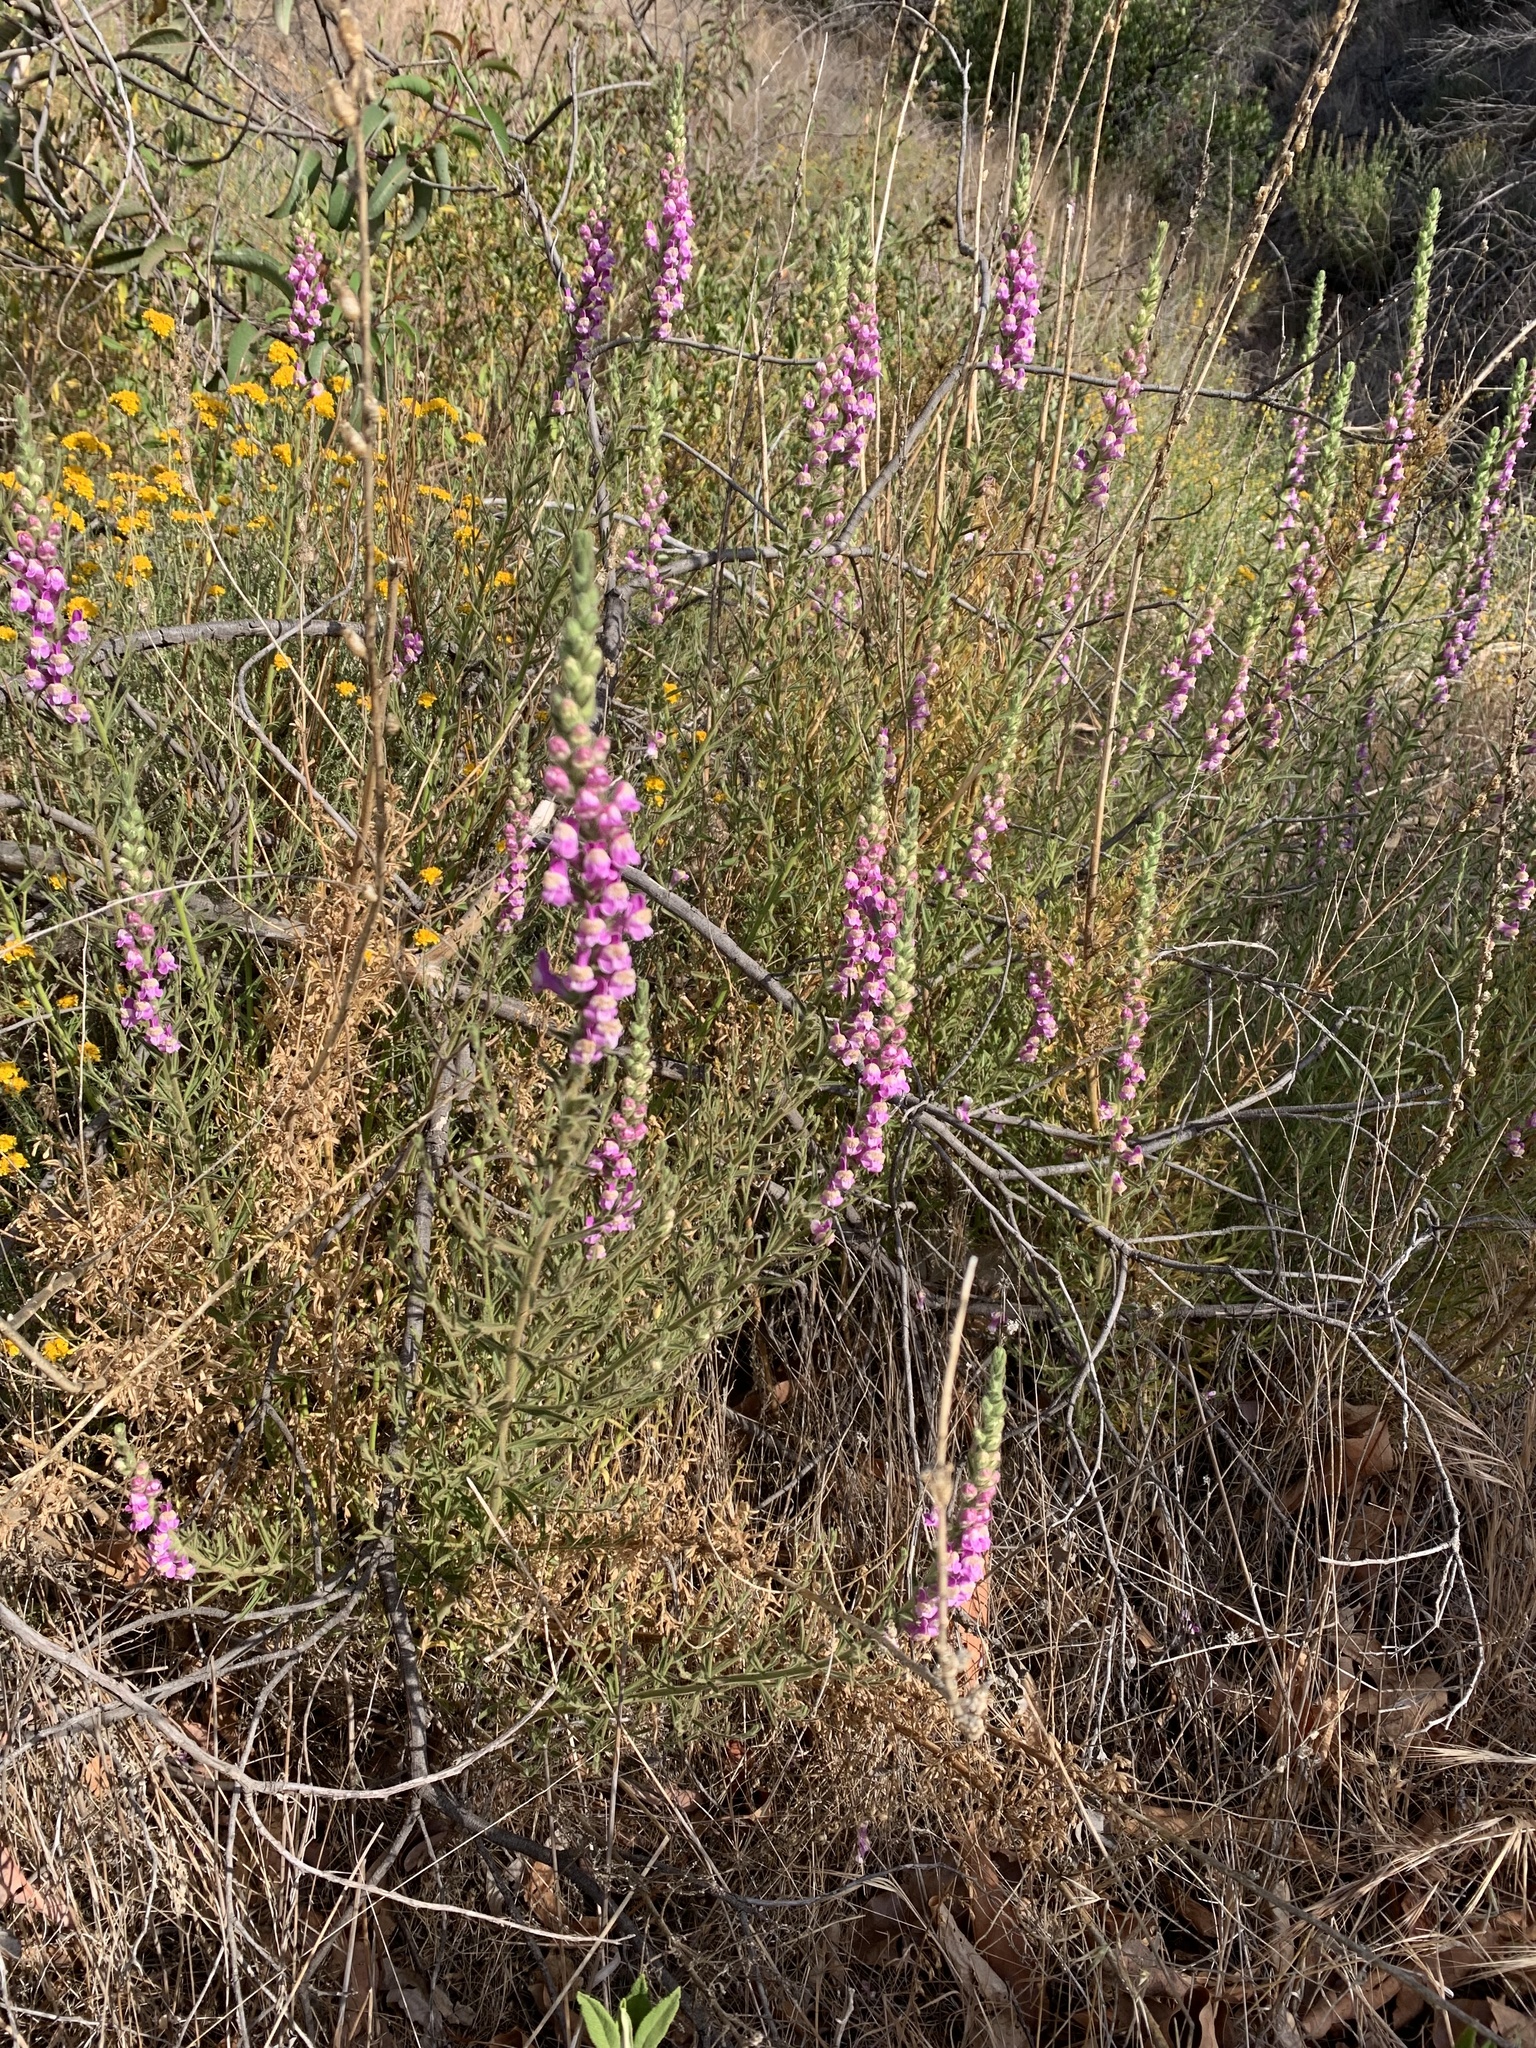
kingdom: Plantae
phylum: Tracheophyta
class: Magnoliopsida
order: Lamiales
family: Plantaginaceae
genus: Sairocarpus
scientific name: Sairocarpus multiflorus
